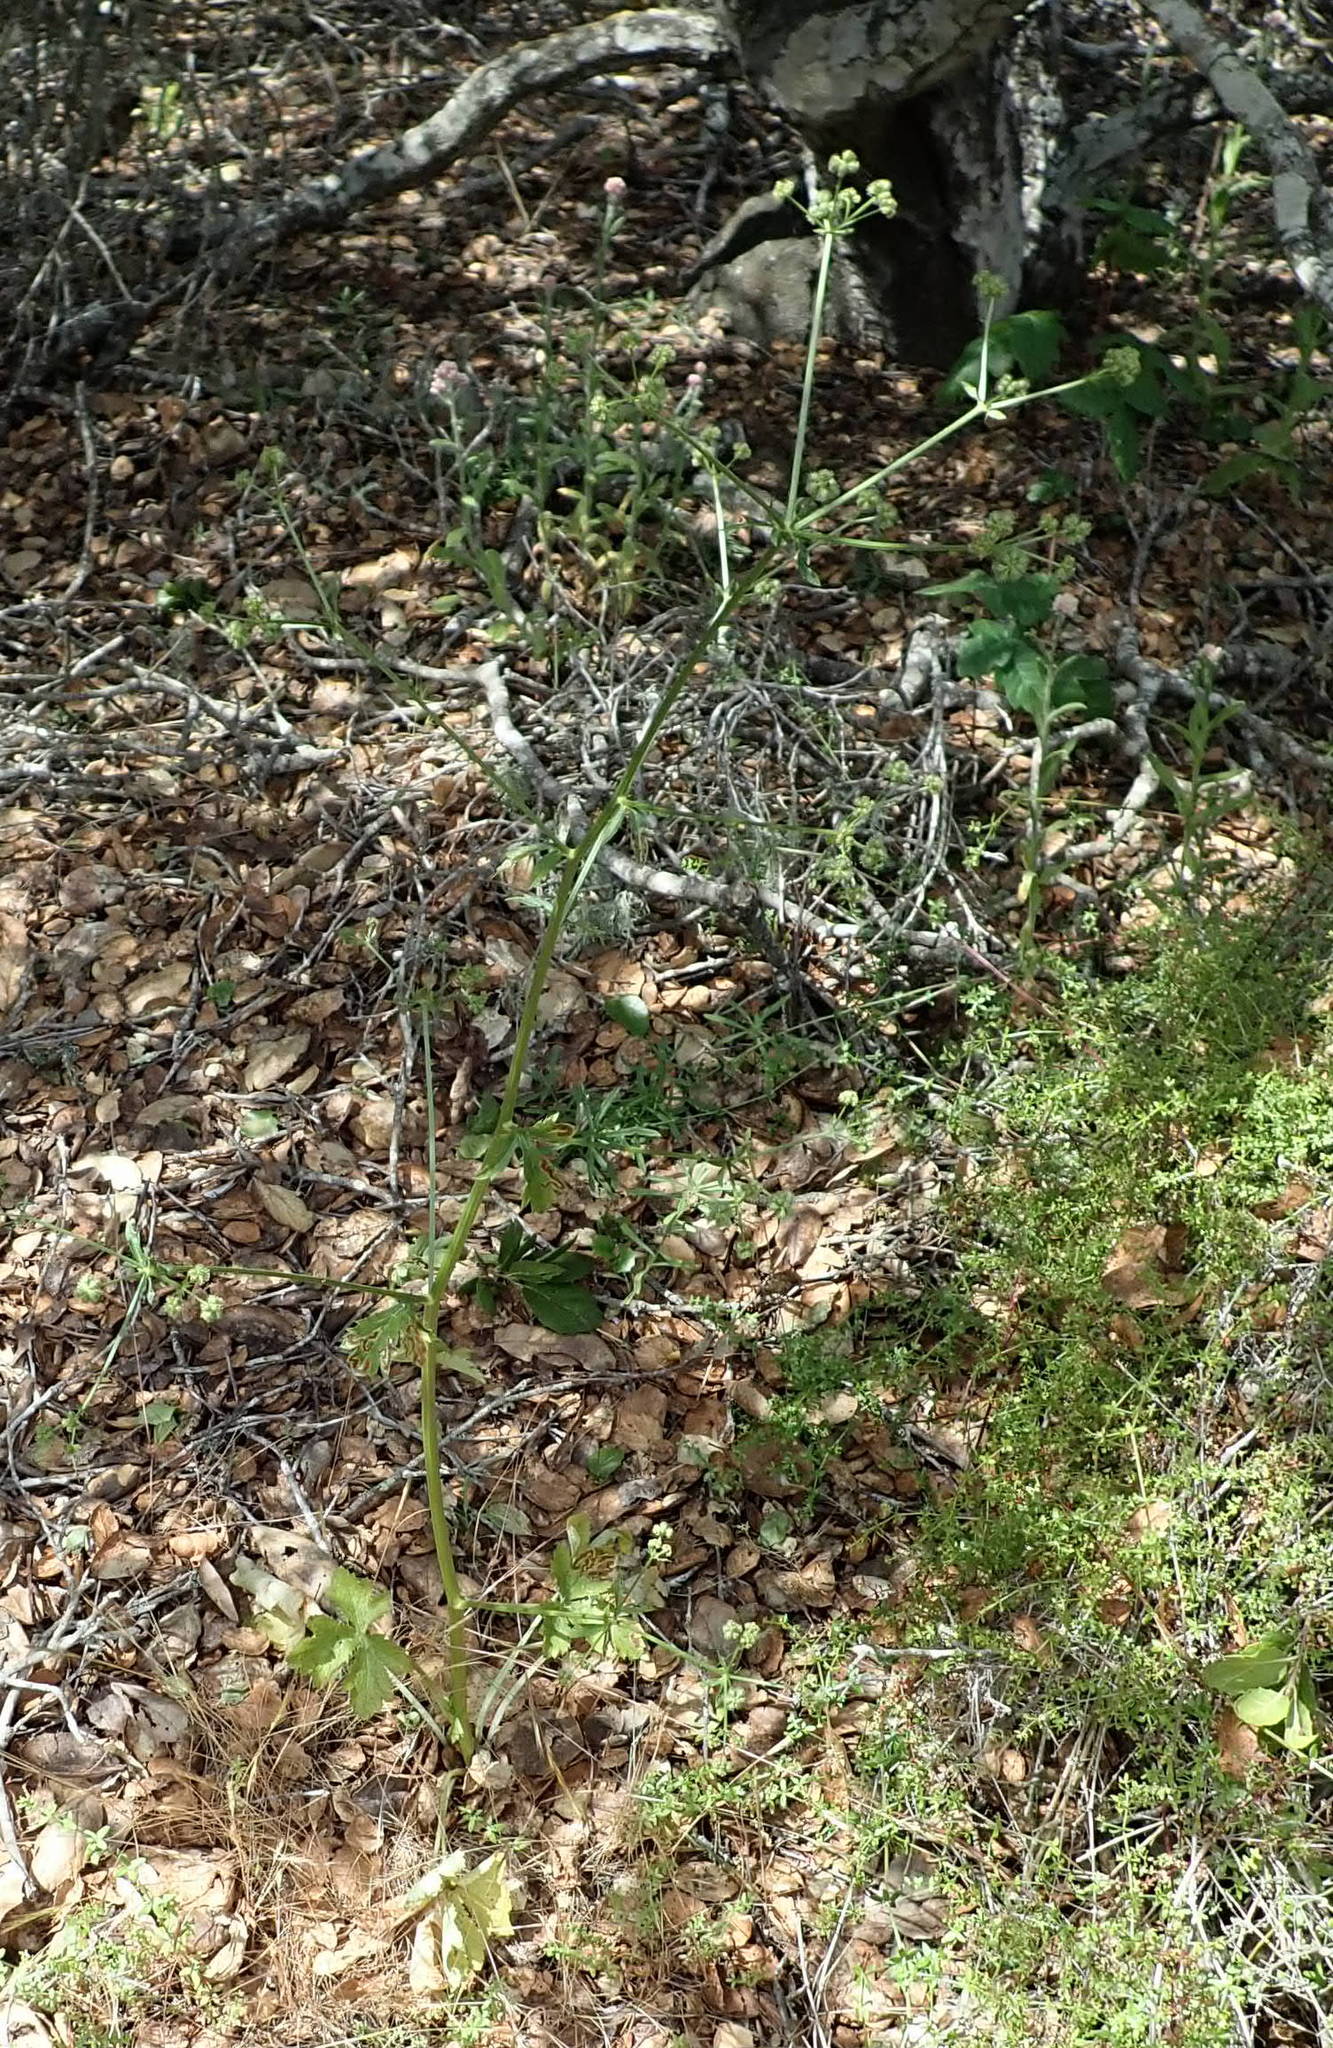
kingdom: Plantae
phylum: Tracheophyta
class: Magnoliopsida
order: Apiales
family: Apiaceae
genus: Sanicula
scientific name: Sanicula crassicaulis
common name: Western snakeroot
